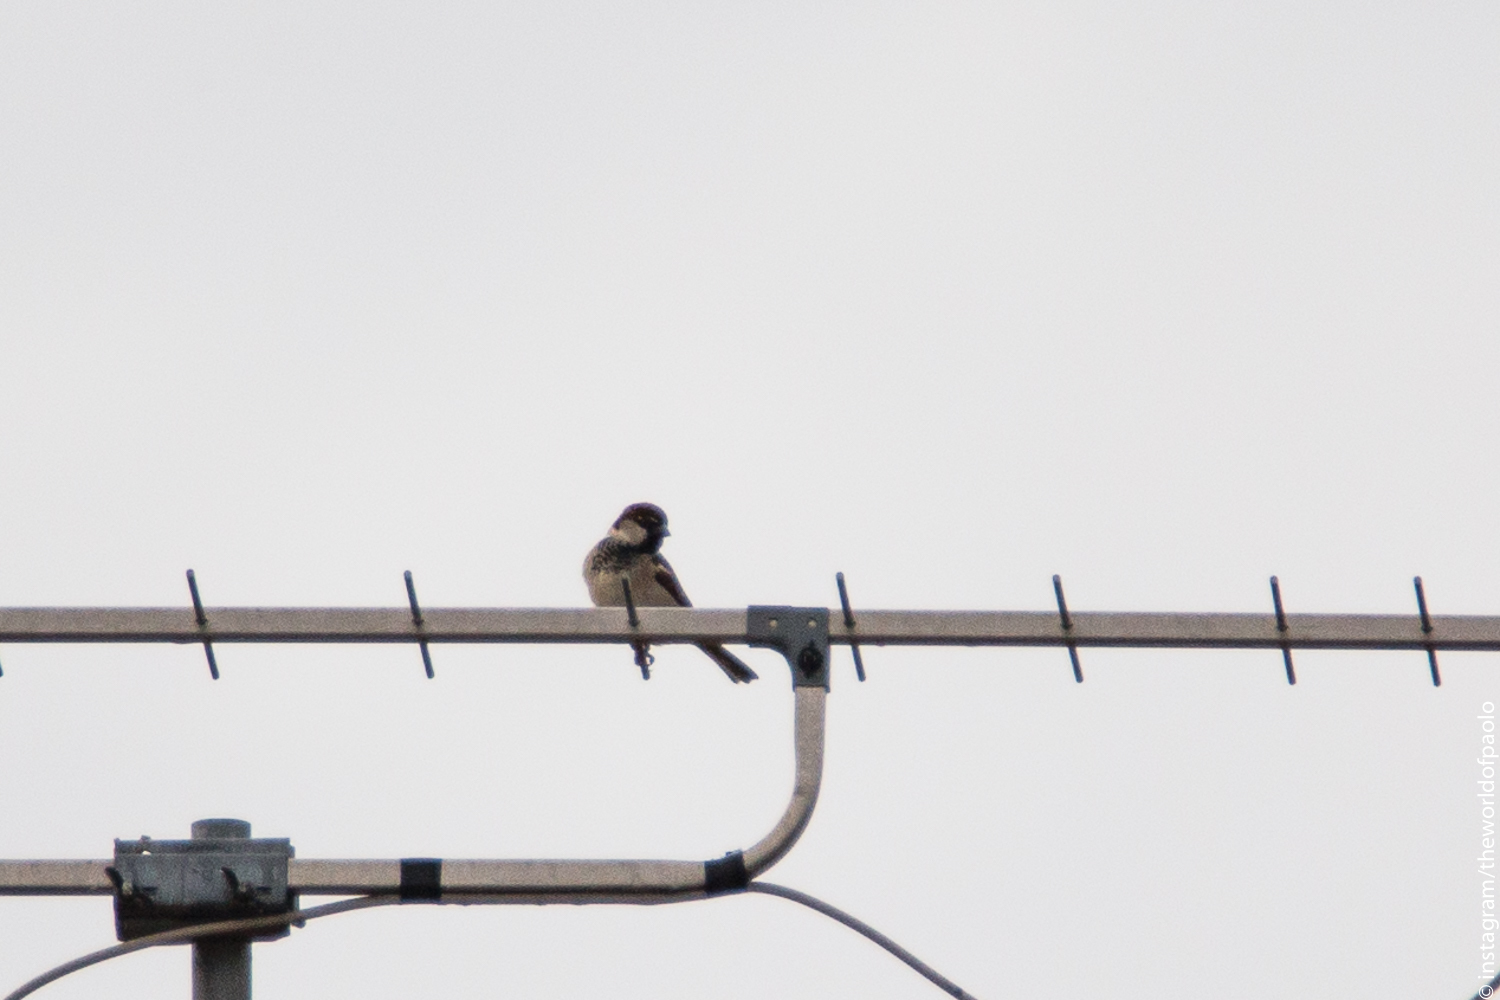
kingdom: Animalia
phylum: Chordata
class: Aves
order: Passeriformes
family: Passeridae
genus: Passer
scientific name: Passer italiae
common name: Italian sparrow
